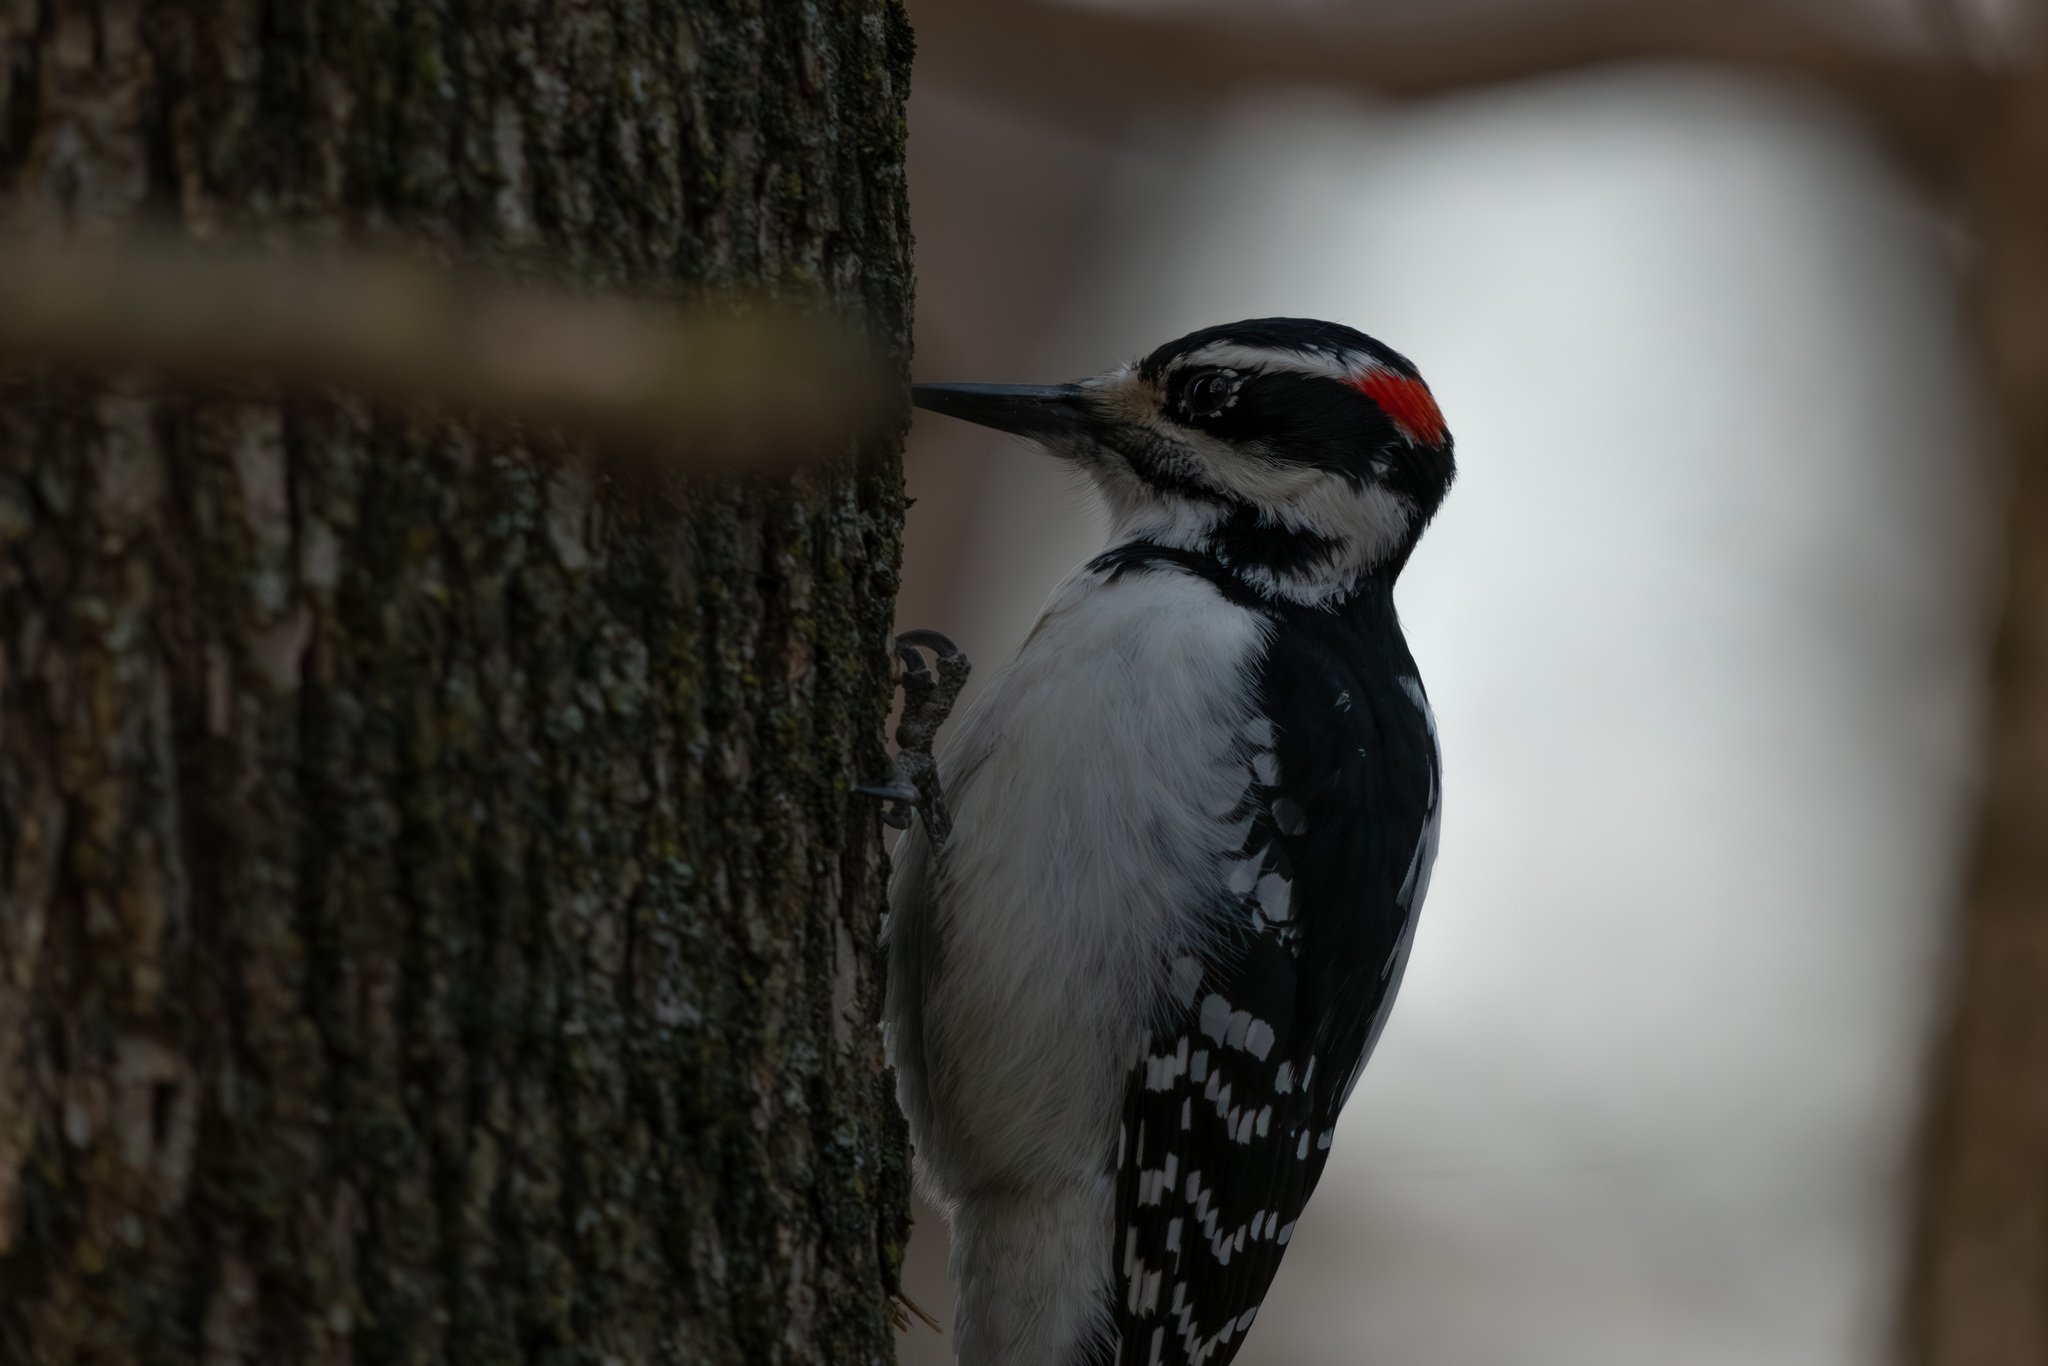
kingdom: Animalia
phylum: Chordata
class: Aves
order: Piciformes
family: Picidae
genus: Leuconotopicus
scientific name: Leuconotopicus villosus
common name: Hairy woodpecker
